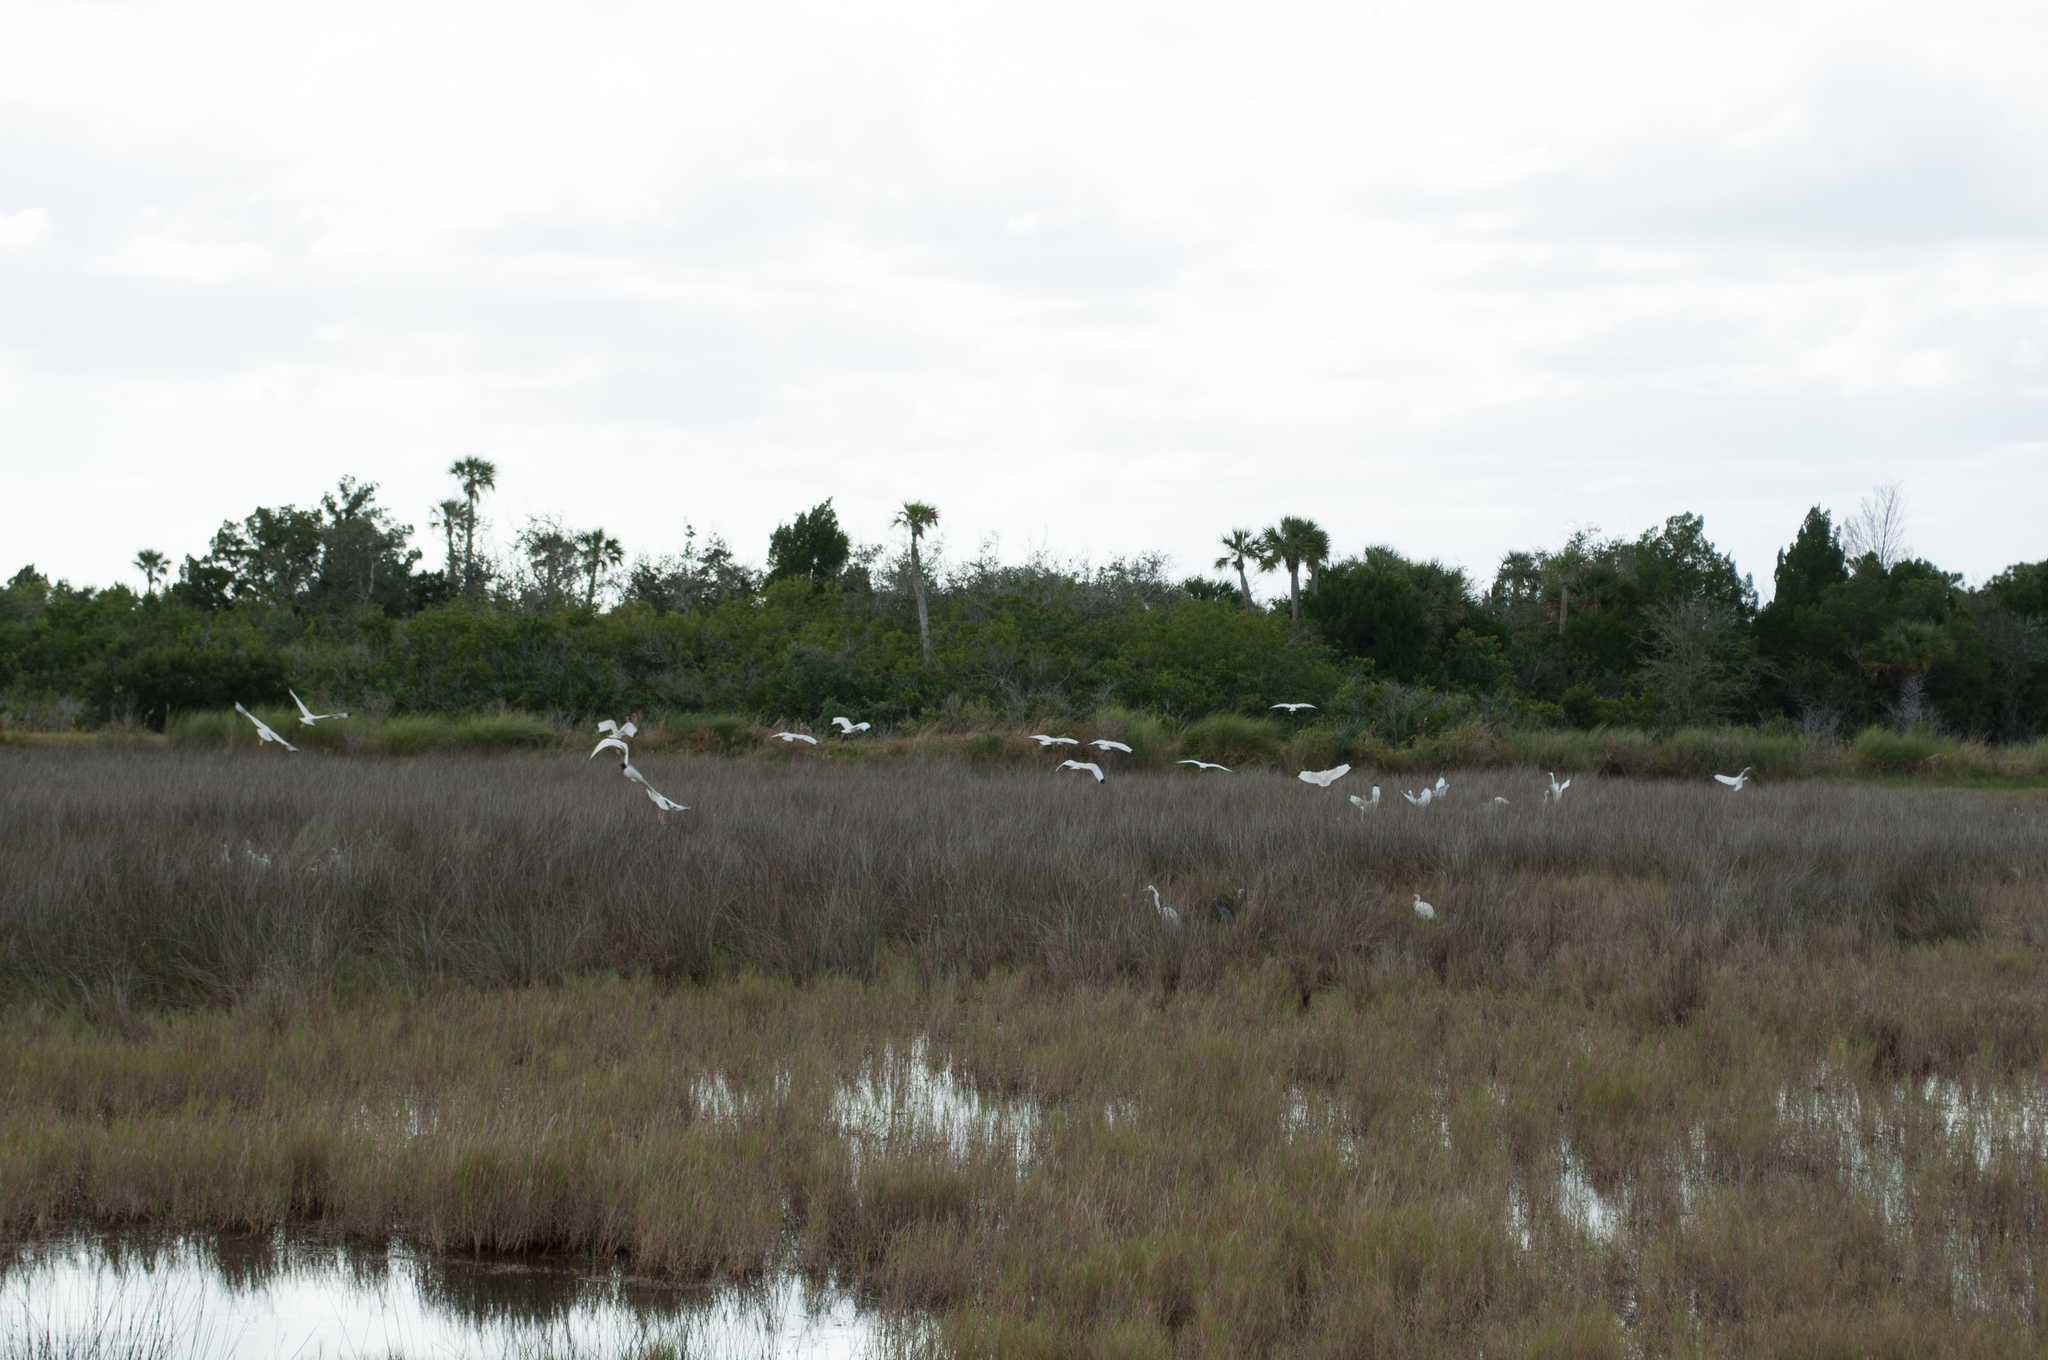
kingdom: Animalia
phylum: Chordata
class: Aves
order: Pelecaniformes
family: Ardeidae
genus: Ardea
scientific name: Ardea alba
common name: Great egret
